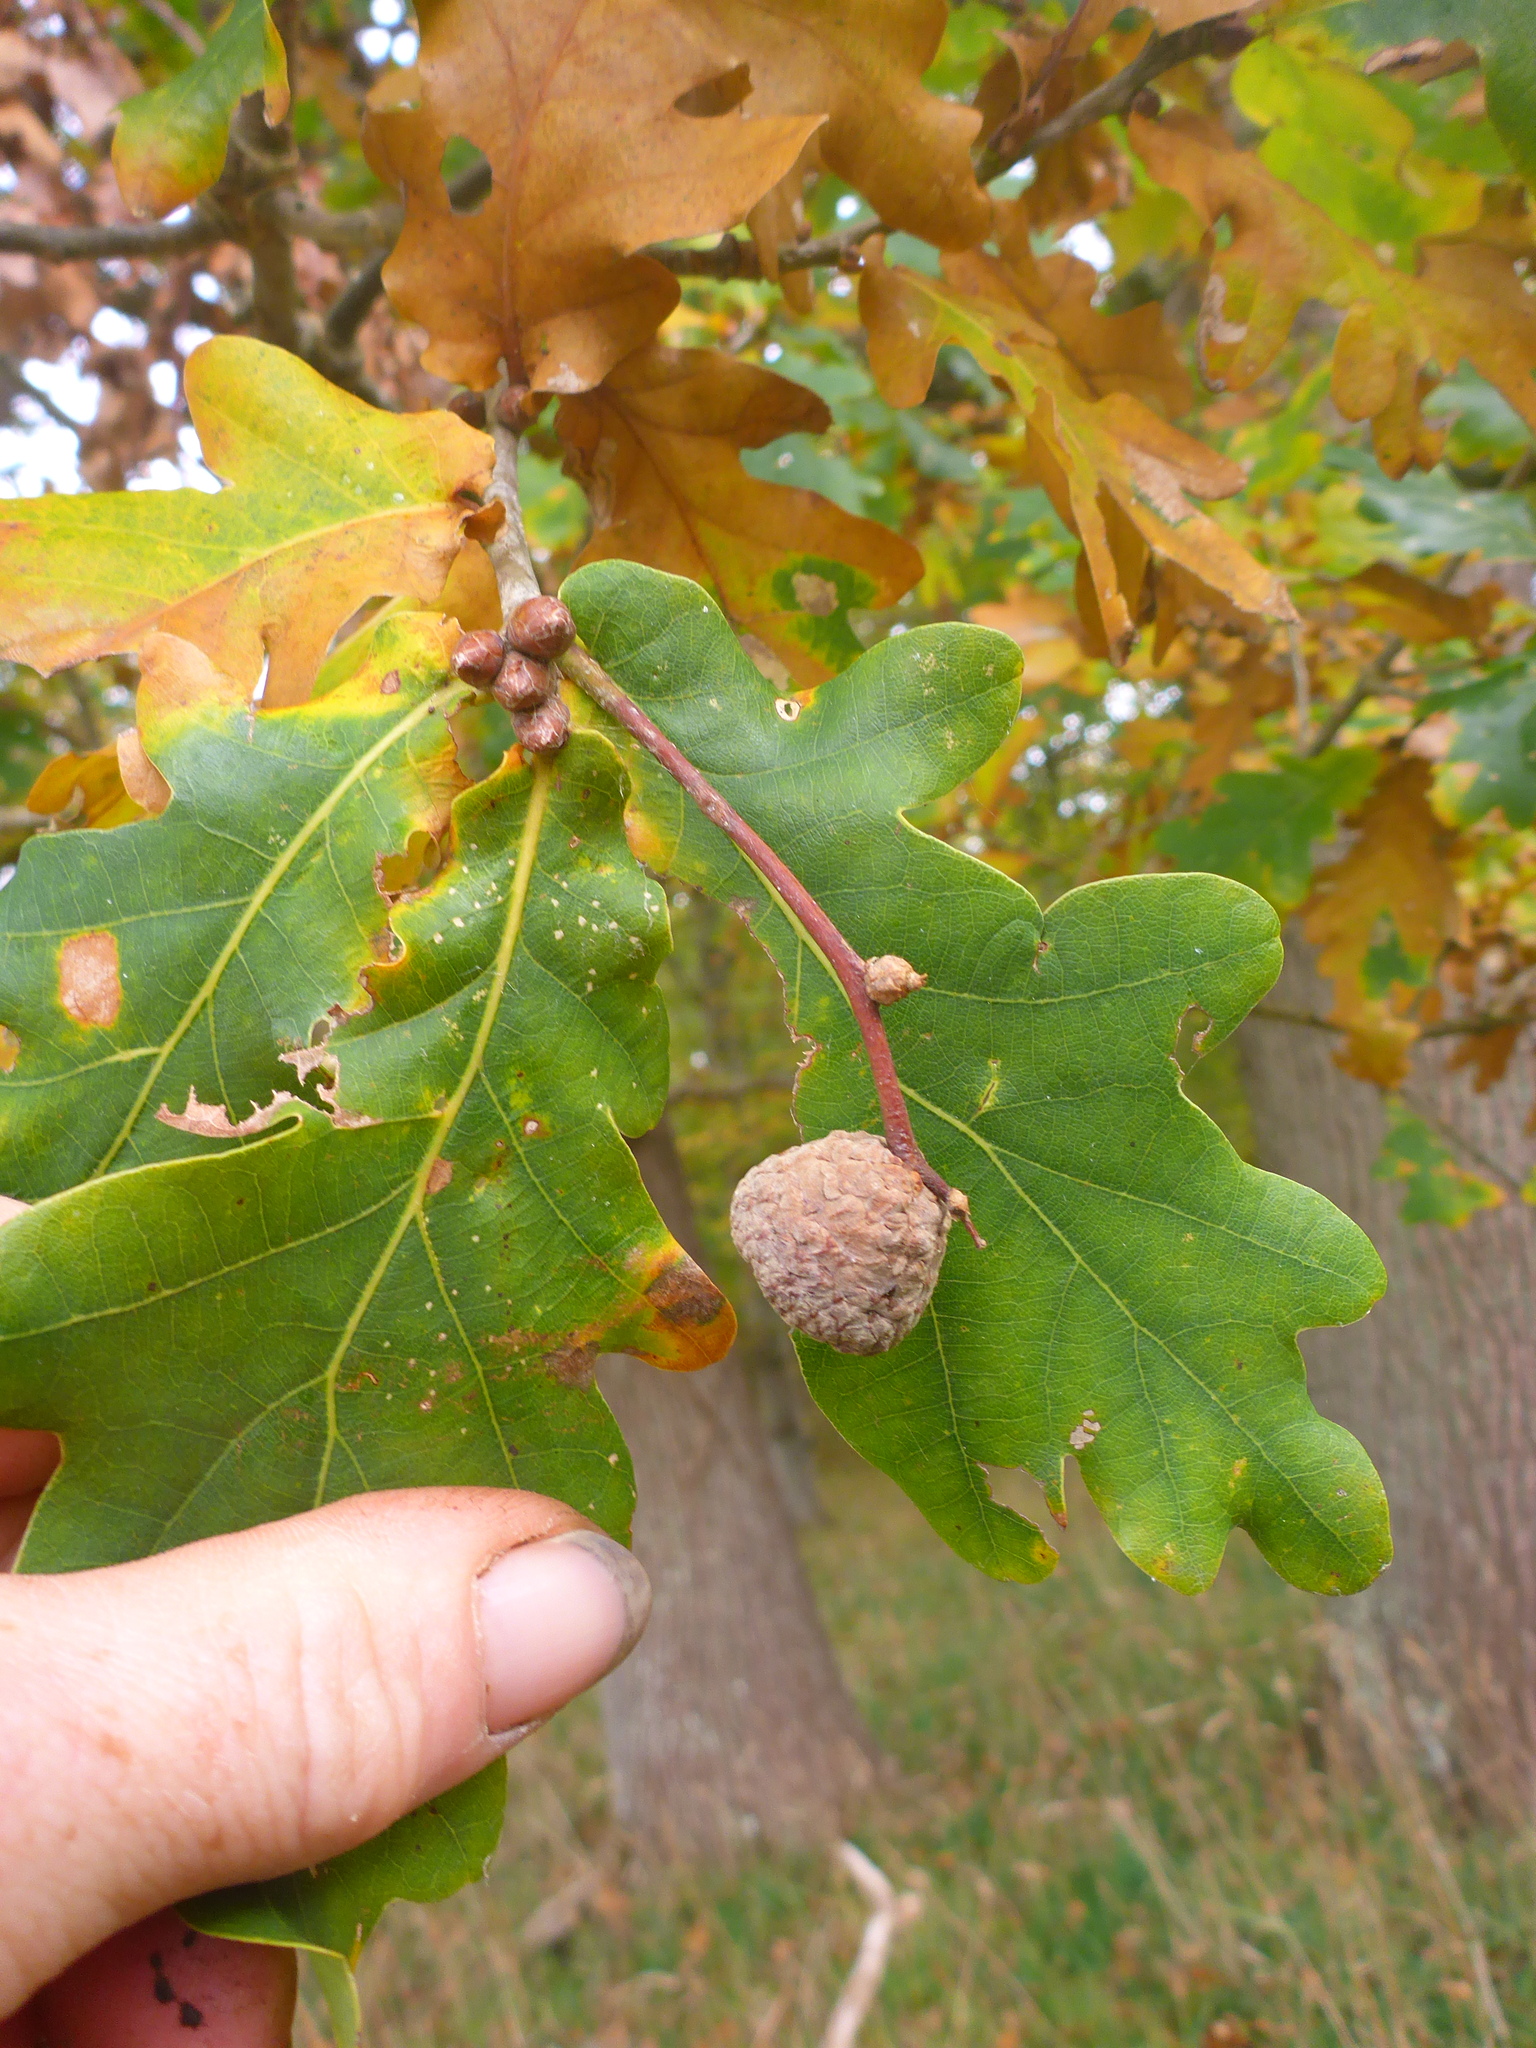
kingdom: Plantae
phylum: Tracheophyta
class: Magnoliopsida
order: Fagales
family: Fagaceae
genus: Quercus
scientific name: Quercus robur
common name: Pedunculate oak
